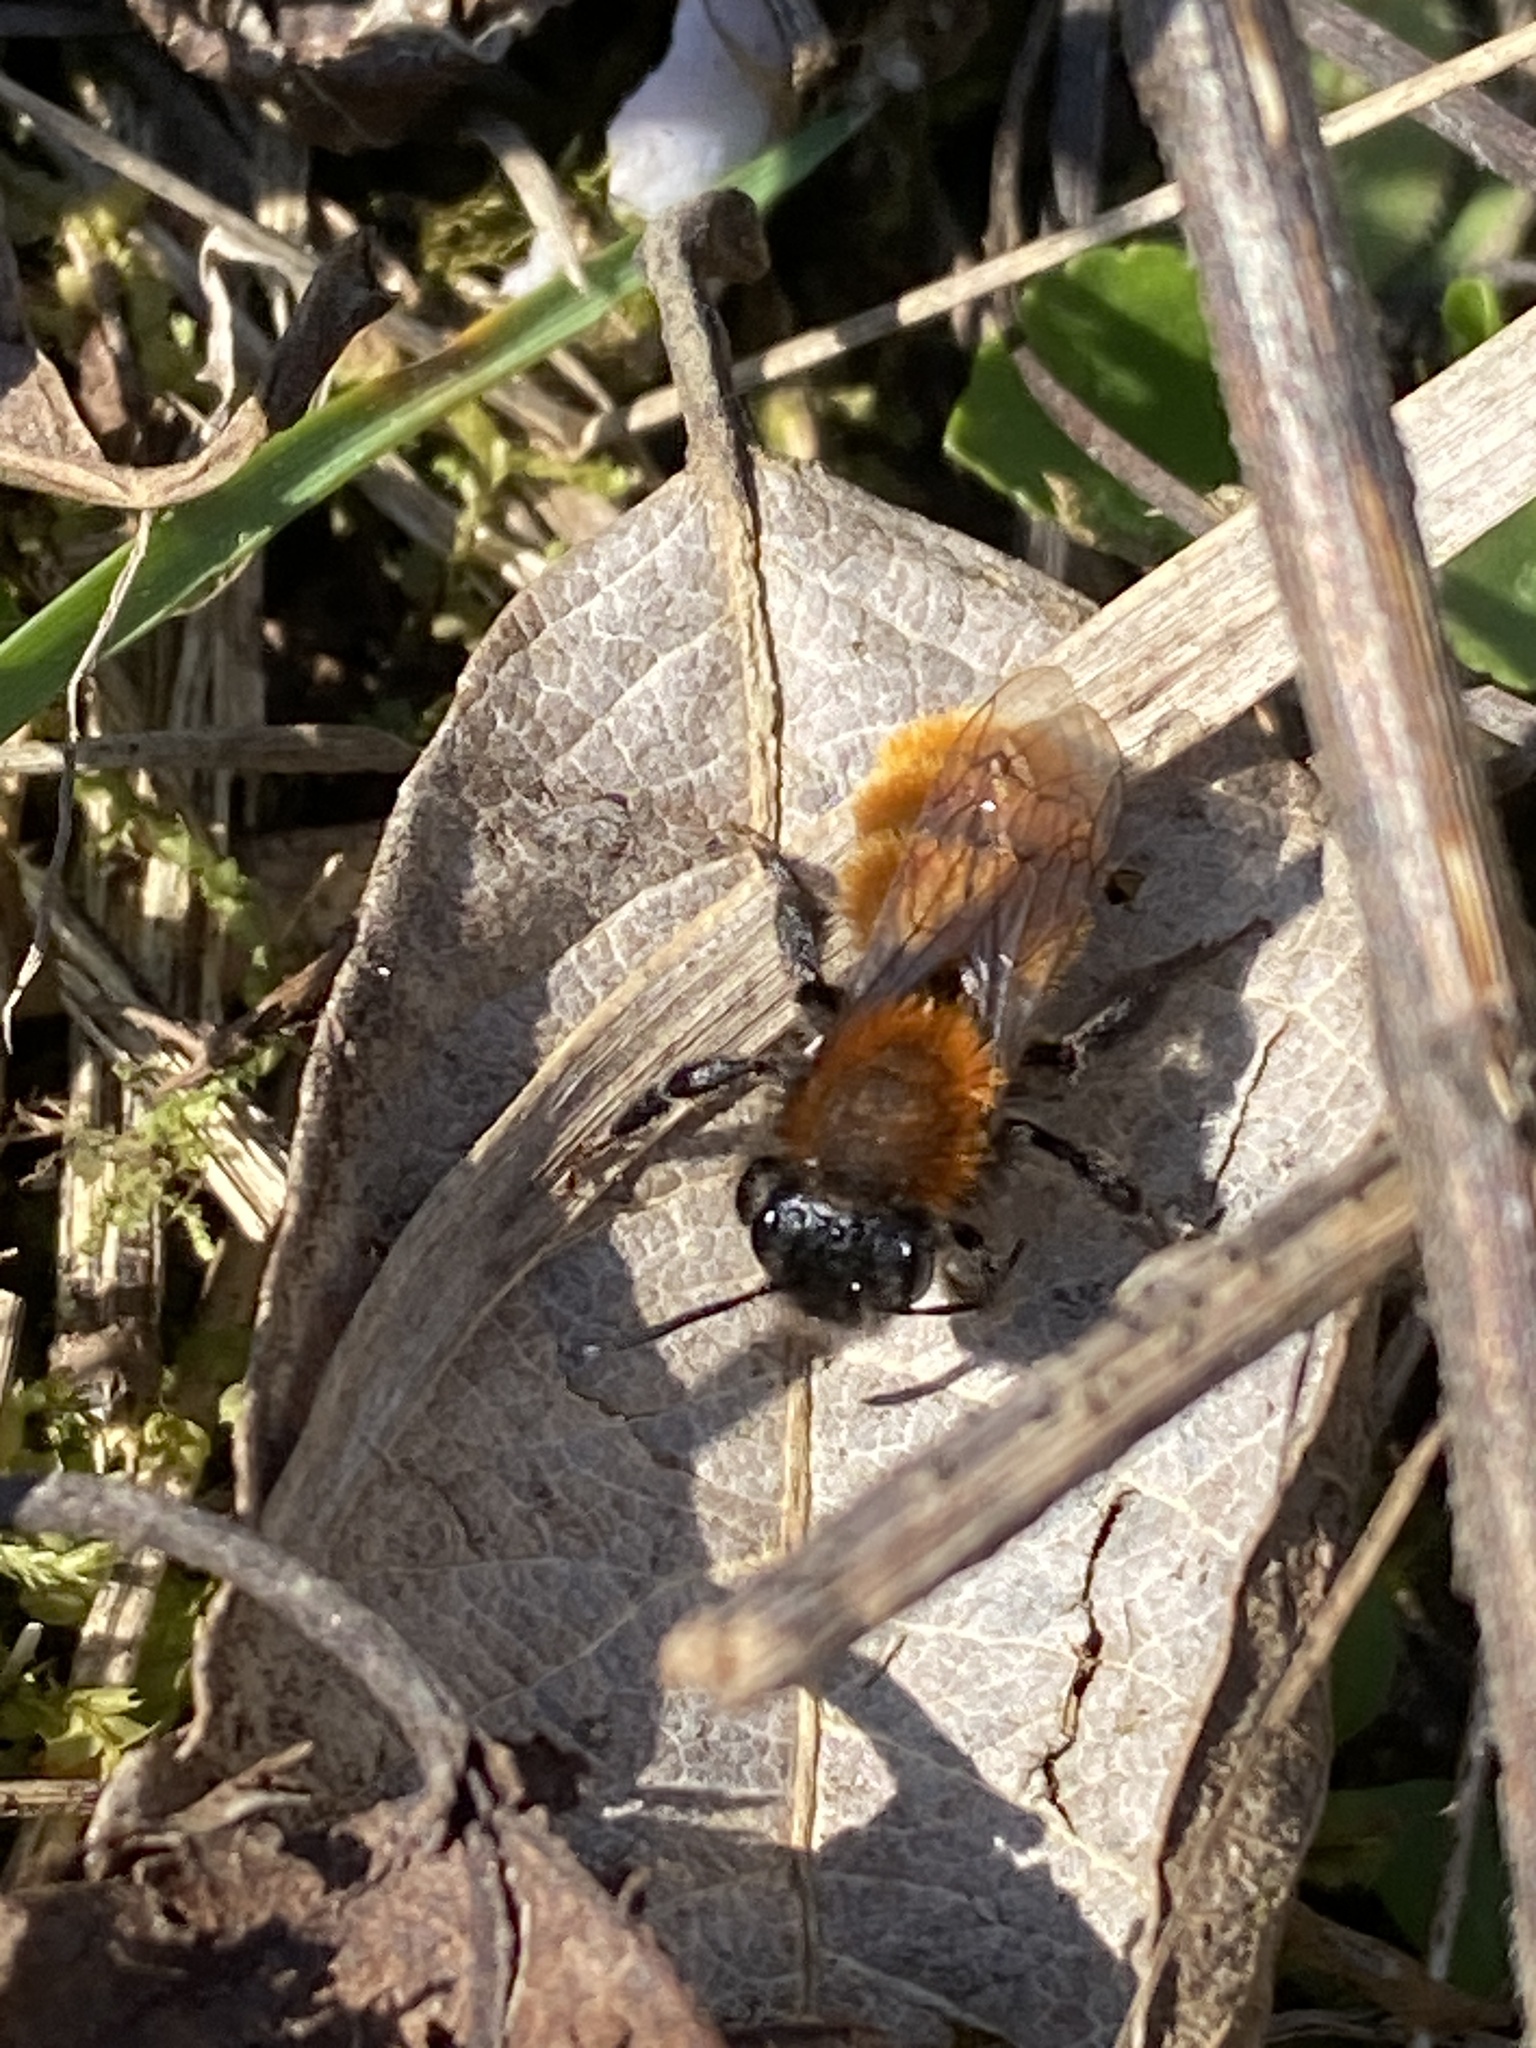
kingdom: Animalia
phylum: Arthropoda
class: Insecta
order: Hymenoptera
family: Andrenidae
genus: Andrena
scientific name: Andrena fulva
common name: Tawny mining bee
